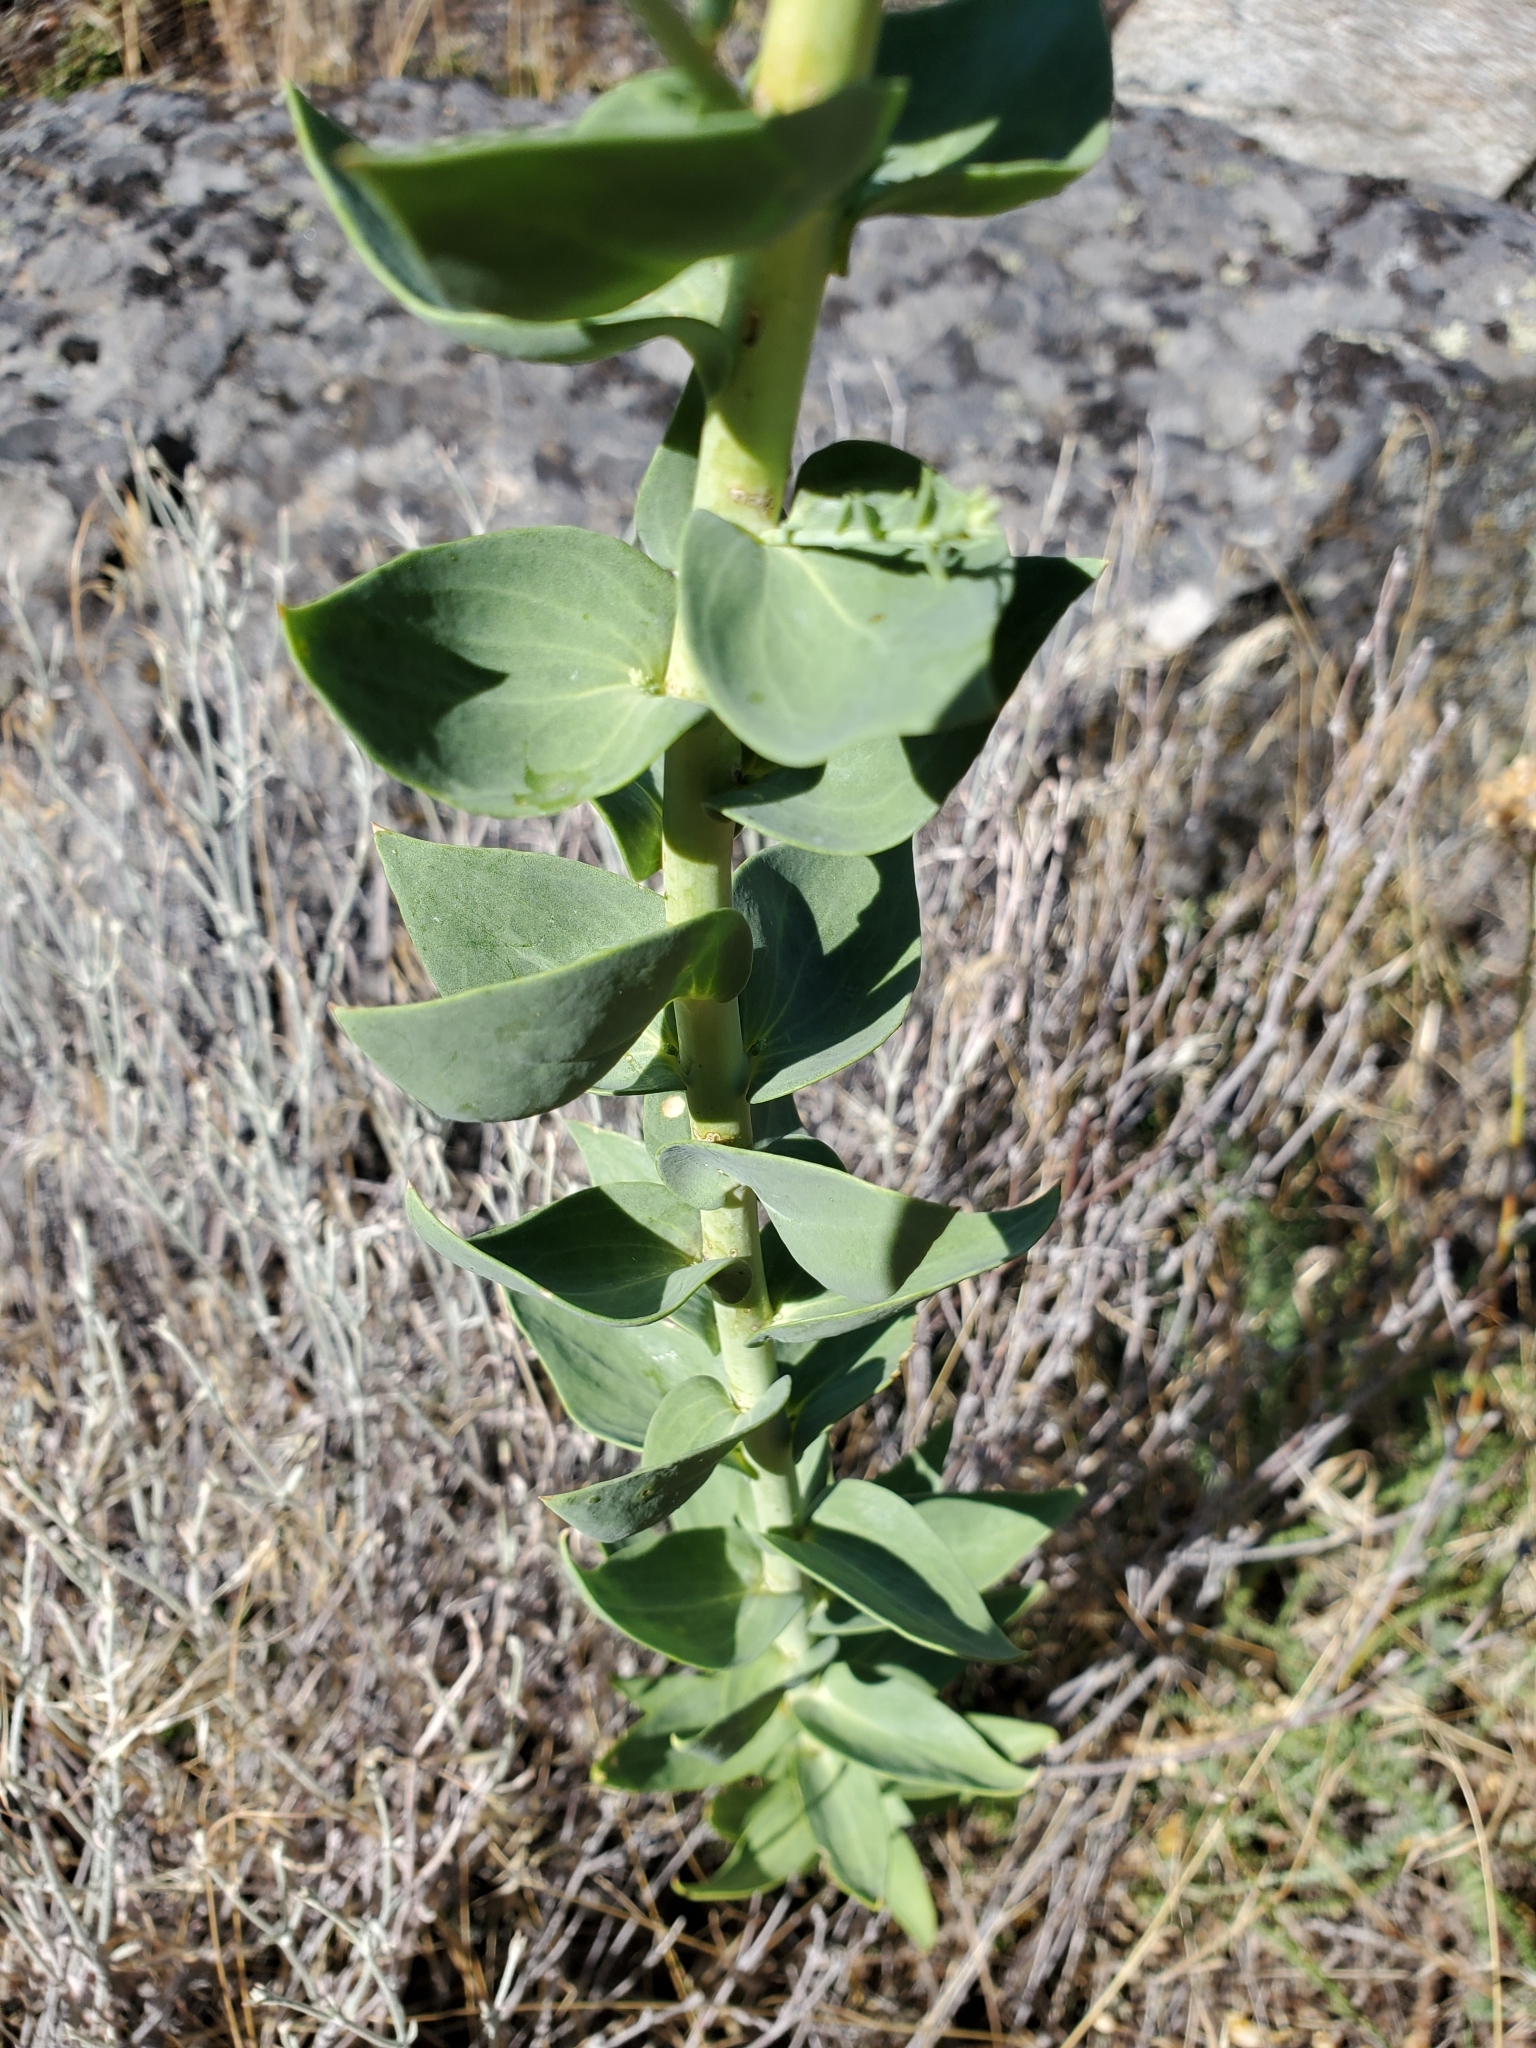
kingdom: Plantae
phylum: Tracheophyta
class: Magnoliopsida
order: Lamiales
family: Plantaginaceae
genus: Linaria
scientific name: Linaria dalmatica
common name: Dalmatian toadflax
